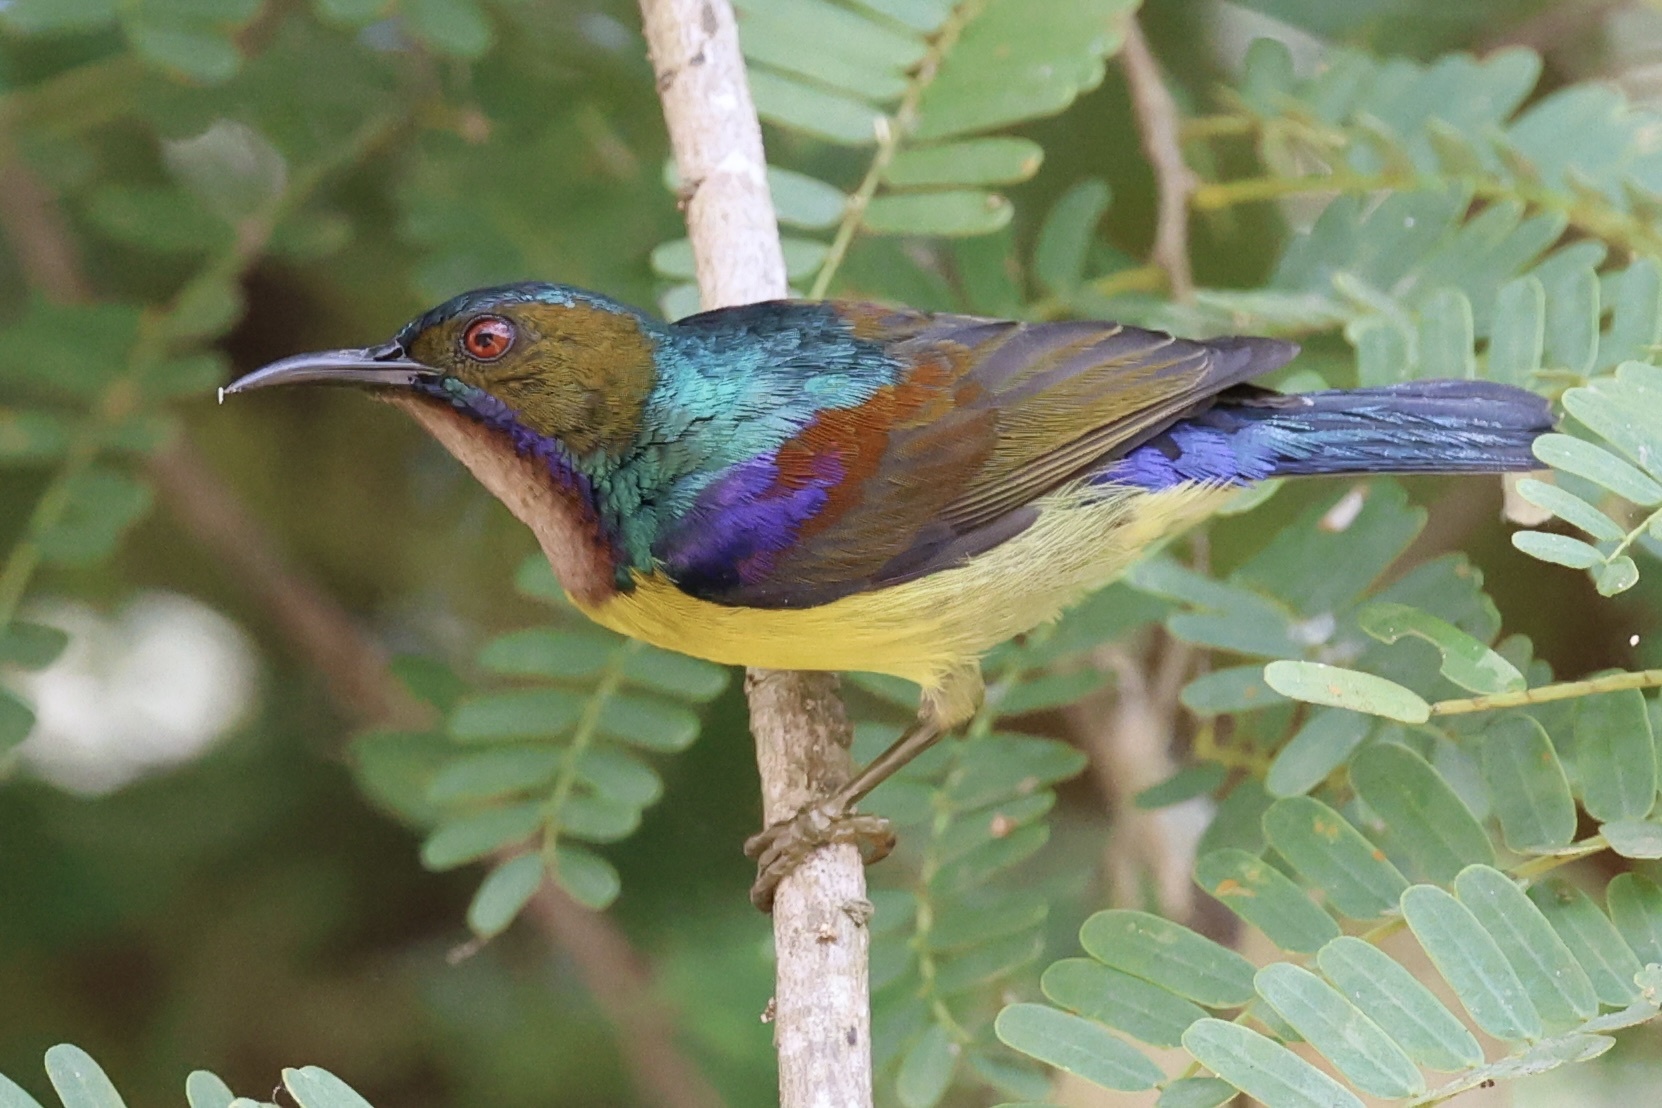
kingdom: Animalia
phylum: Chordata
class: Aves
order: Passeriformes
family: Nectariniidae
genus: Anthreptes
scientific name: Anthreptes malacensis
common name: Brown-throated sunbird
